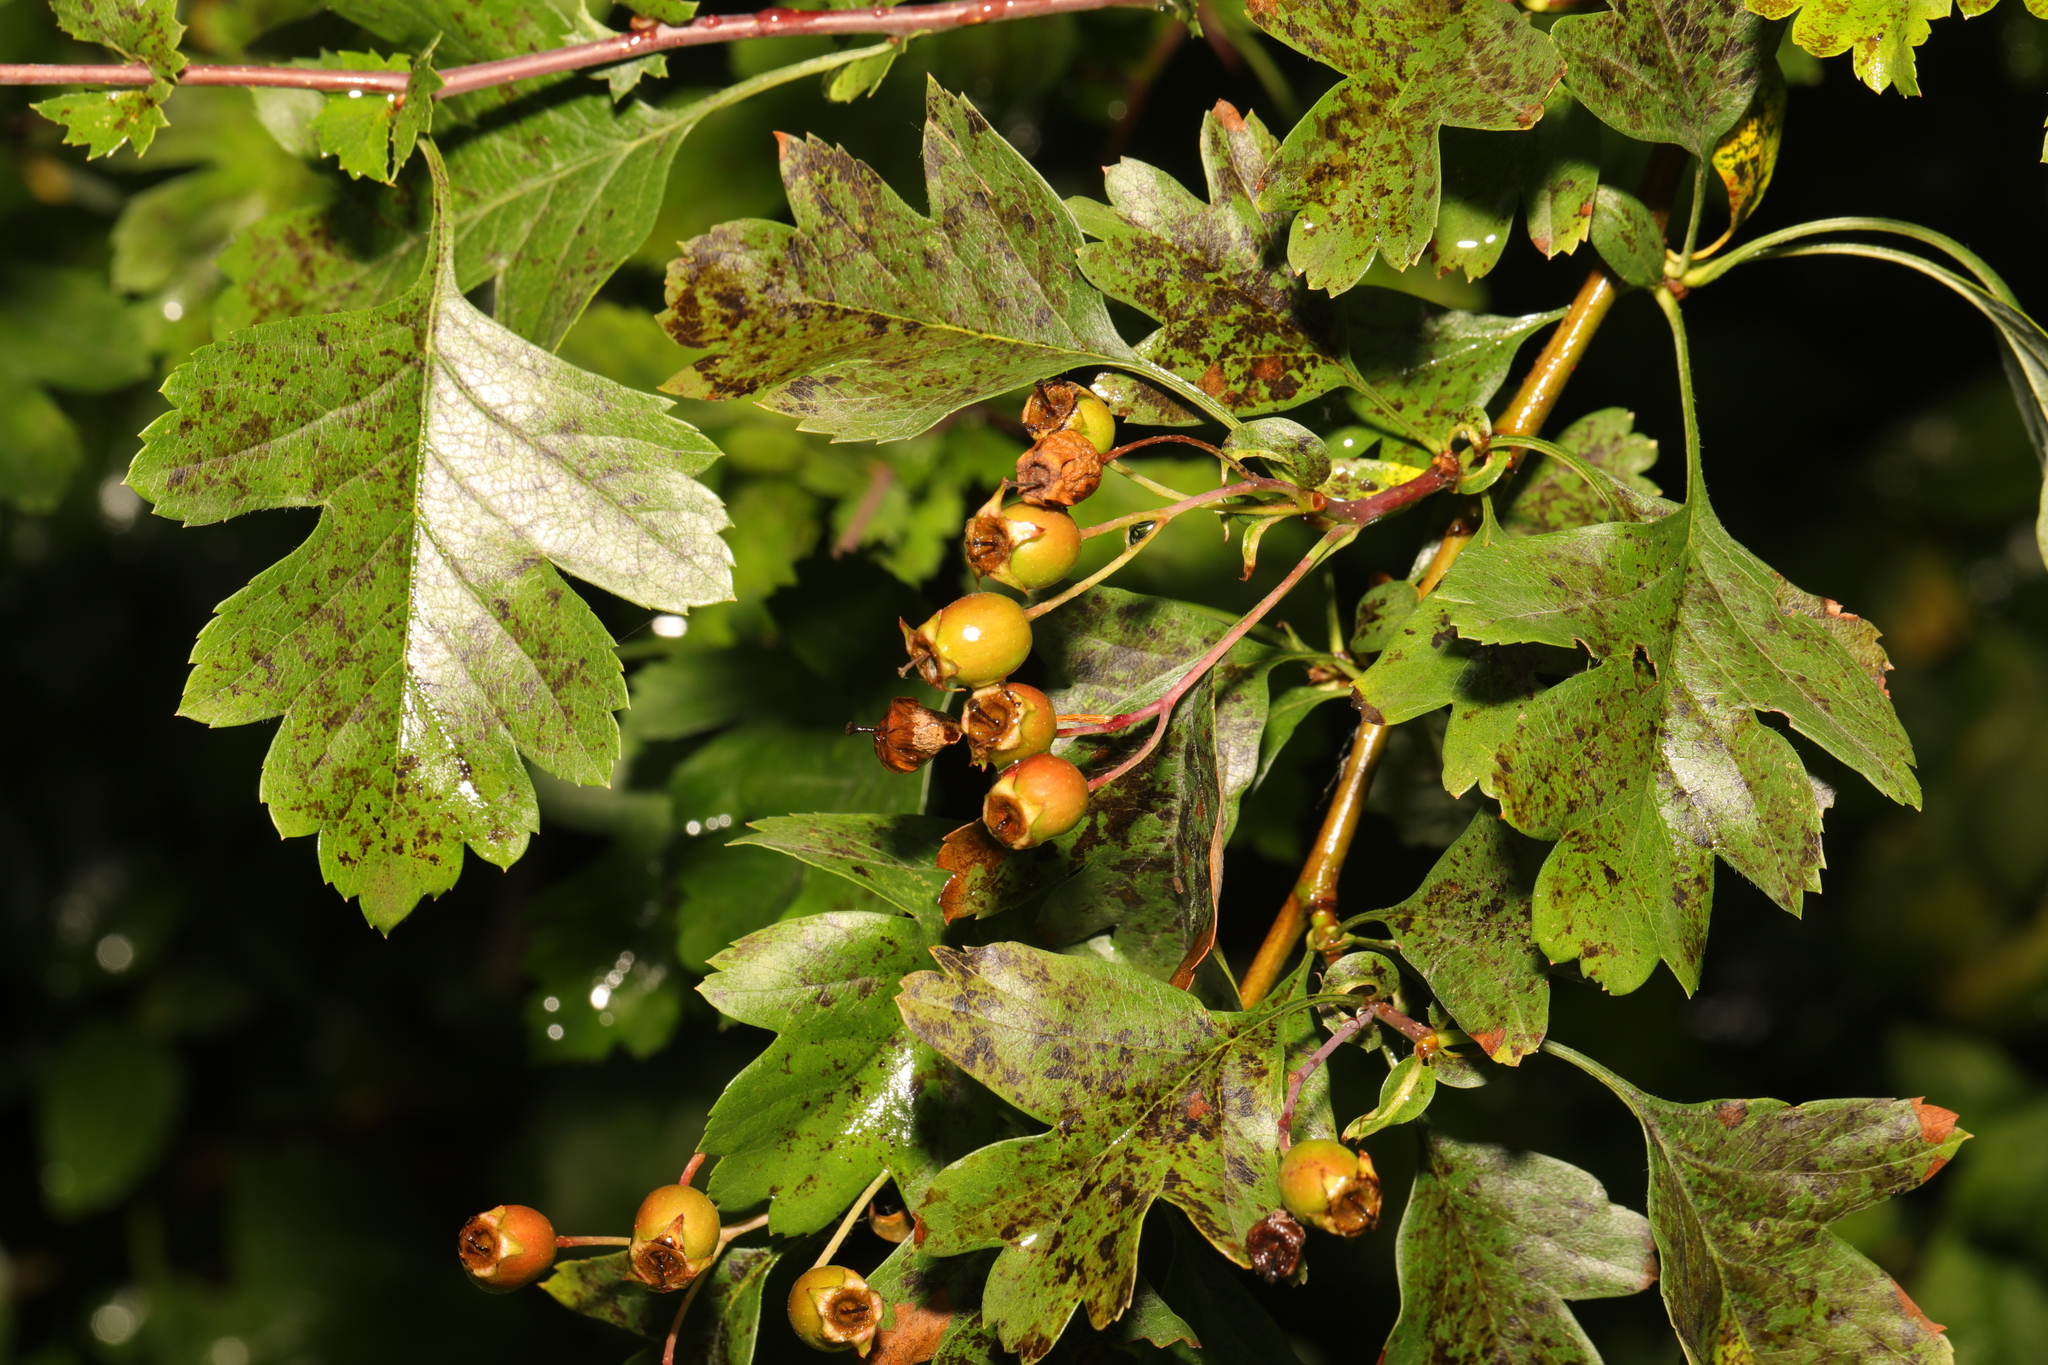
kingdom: Plantae
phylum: Tracheophyta
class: Magnoliopsida
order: Rosales
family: Rosaceae
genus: Crataegus
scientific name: Crataegus monogyna
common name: Hawthorn
